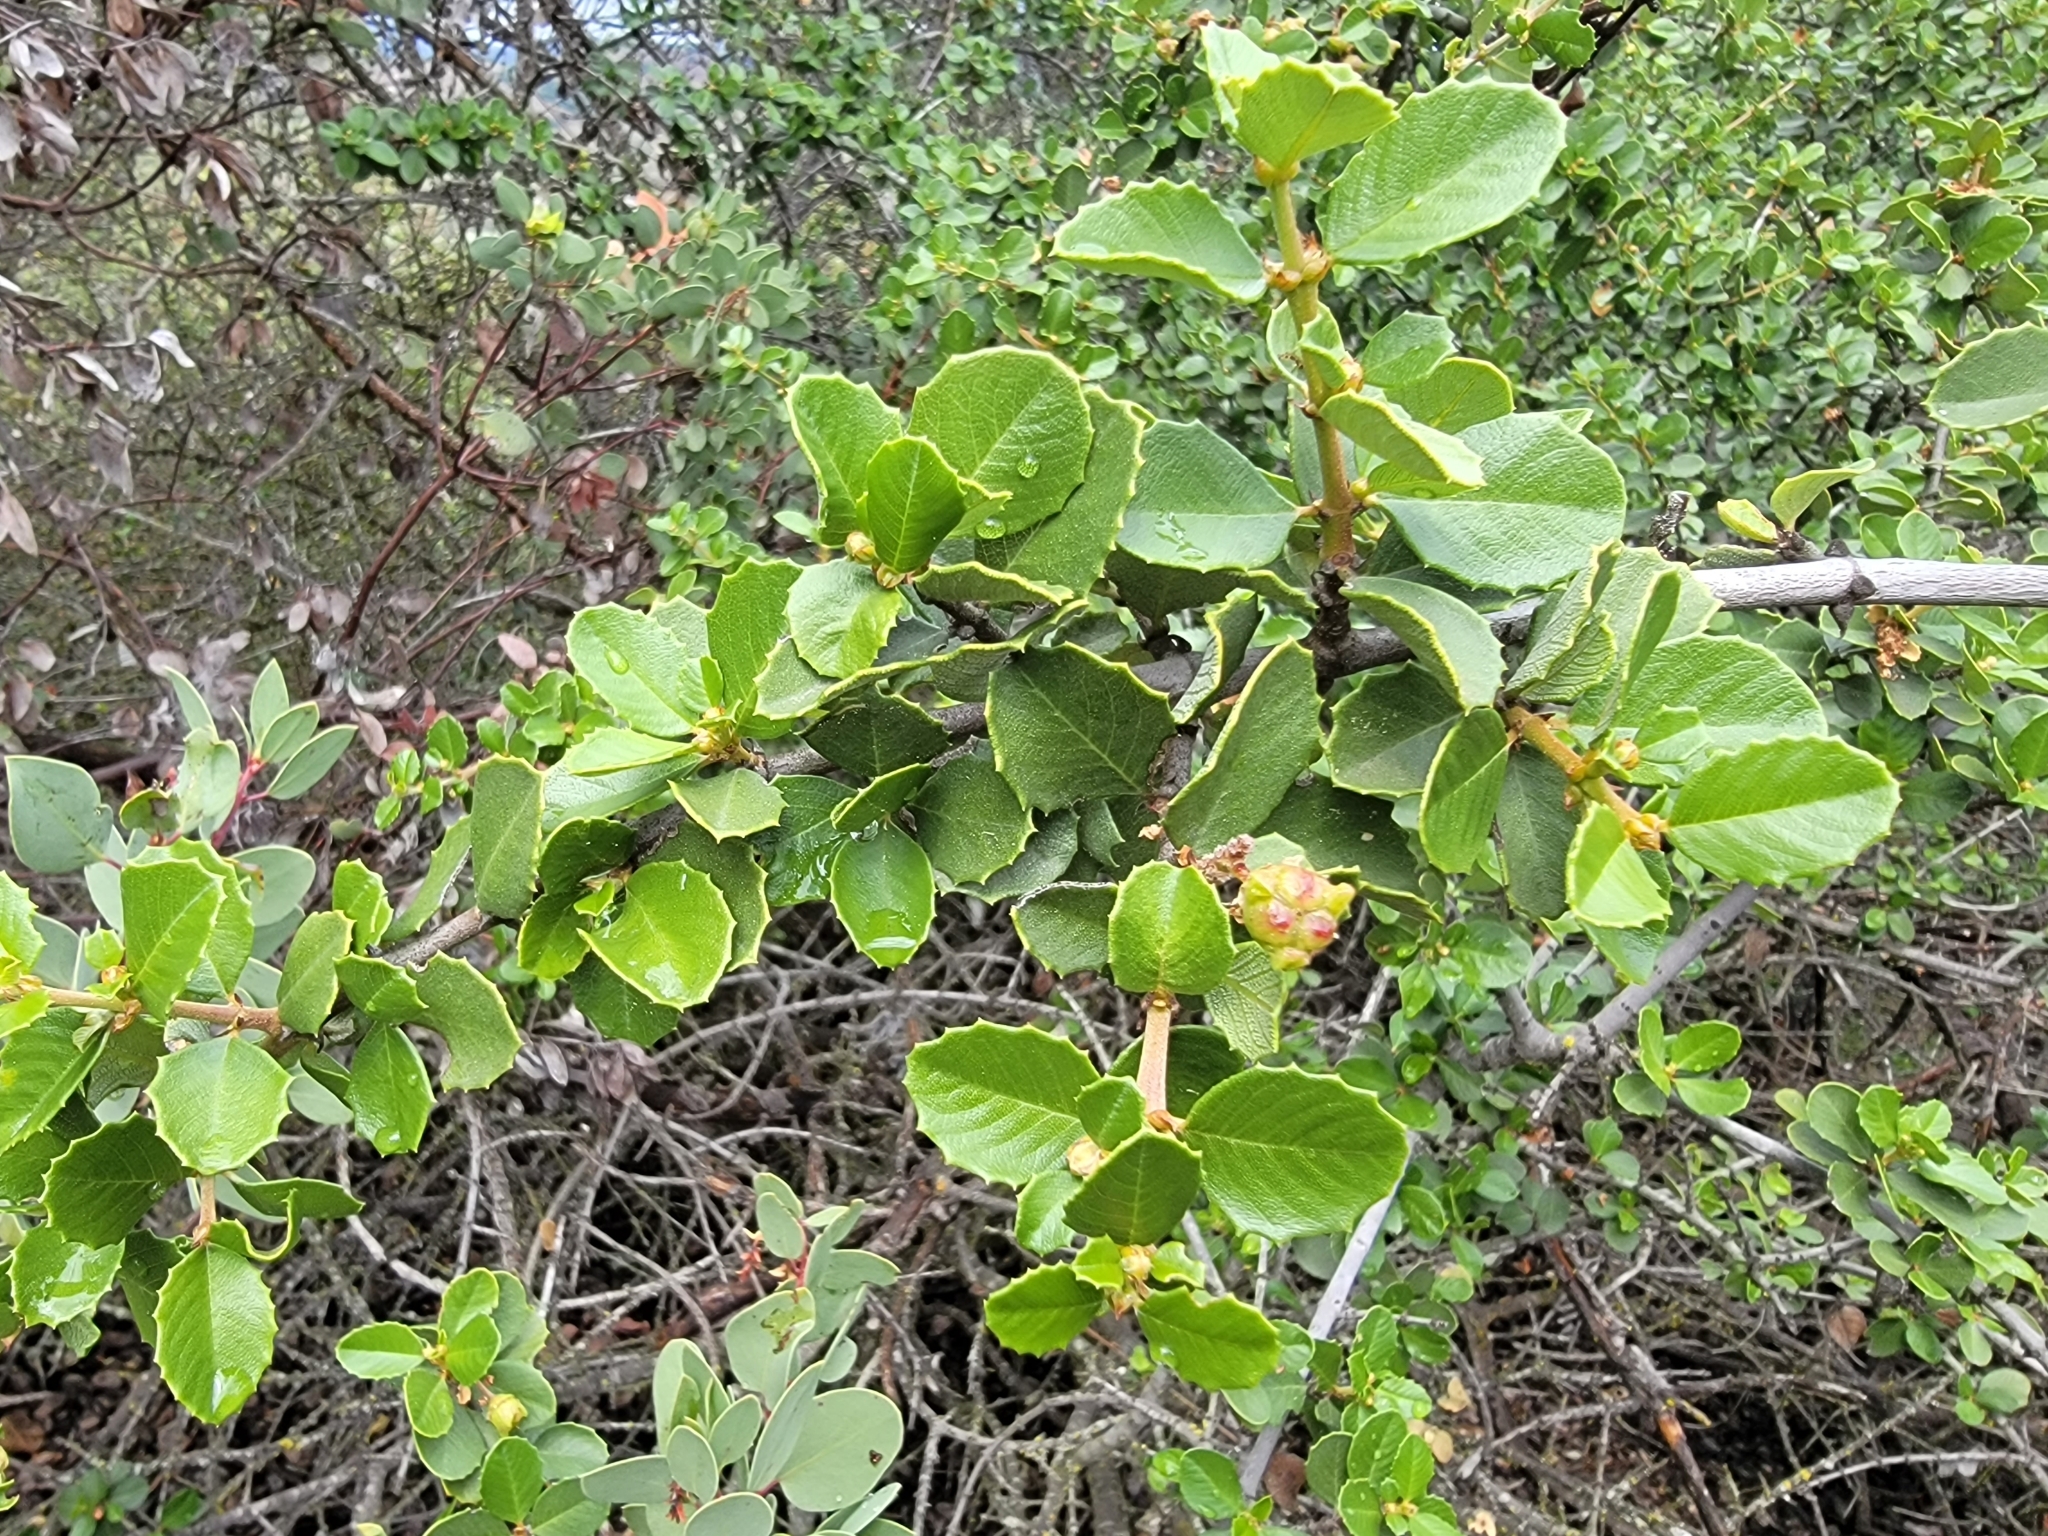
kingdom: Plantae
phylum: Tracheophyta
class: Magnoliopsida
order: Rosales
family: Rhamnaceae
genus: Ceanothus
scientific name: Ceanothus ferrisiae
